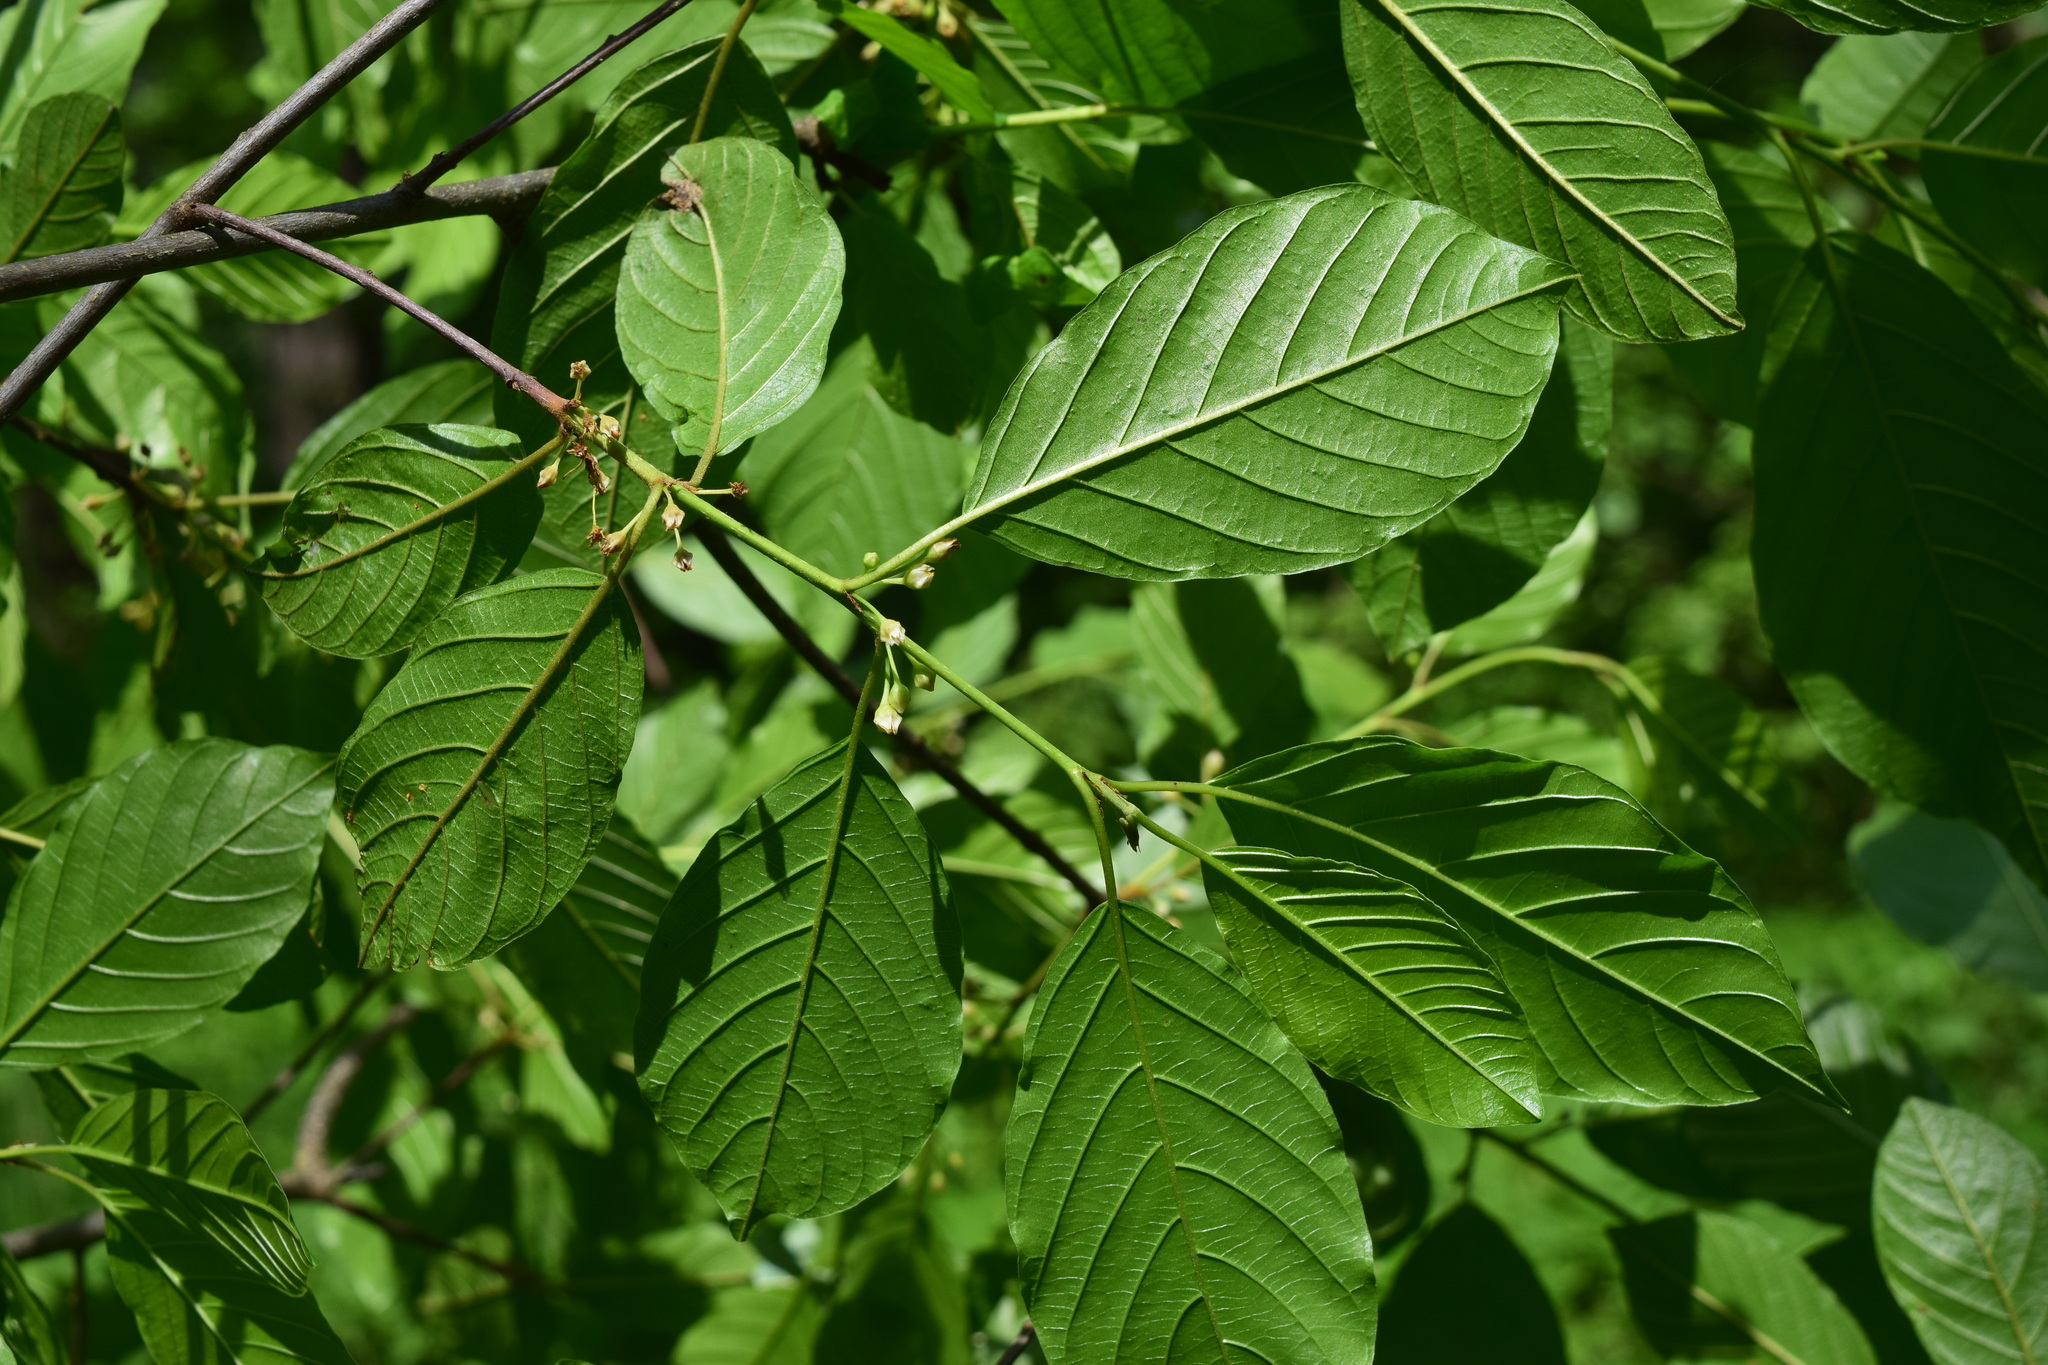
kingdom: Plantae
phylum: Tracheophyta
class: Magnoliopsida
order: Rosales
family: Rhamnaceae
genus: Frangula
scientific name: Frangula alnus
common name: Alder buckthorn
